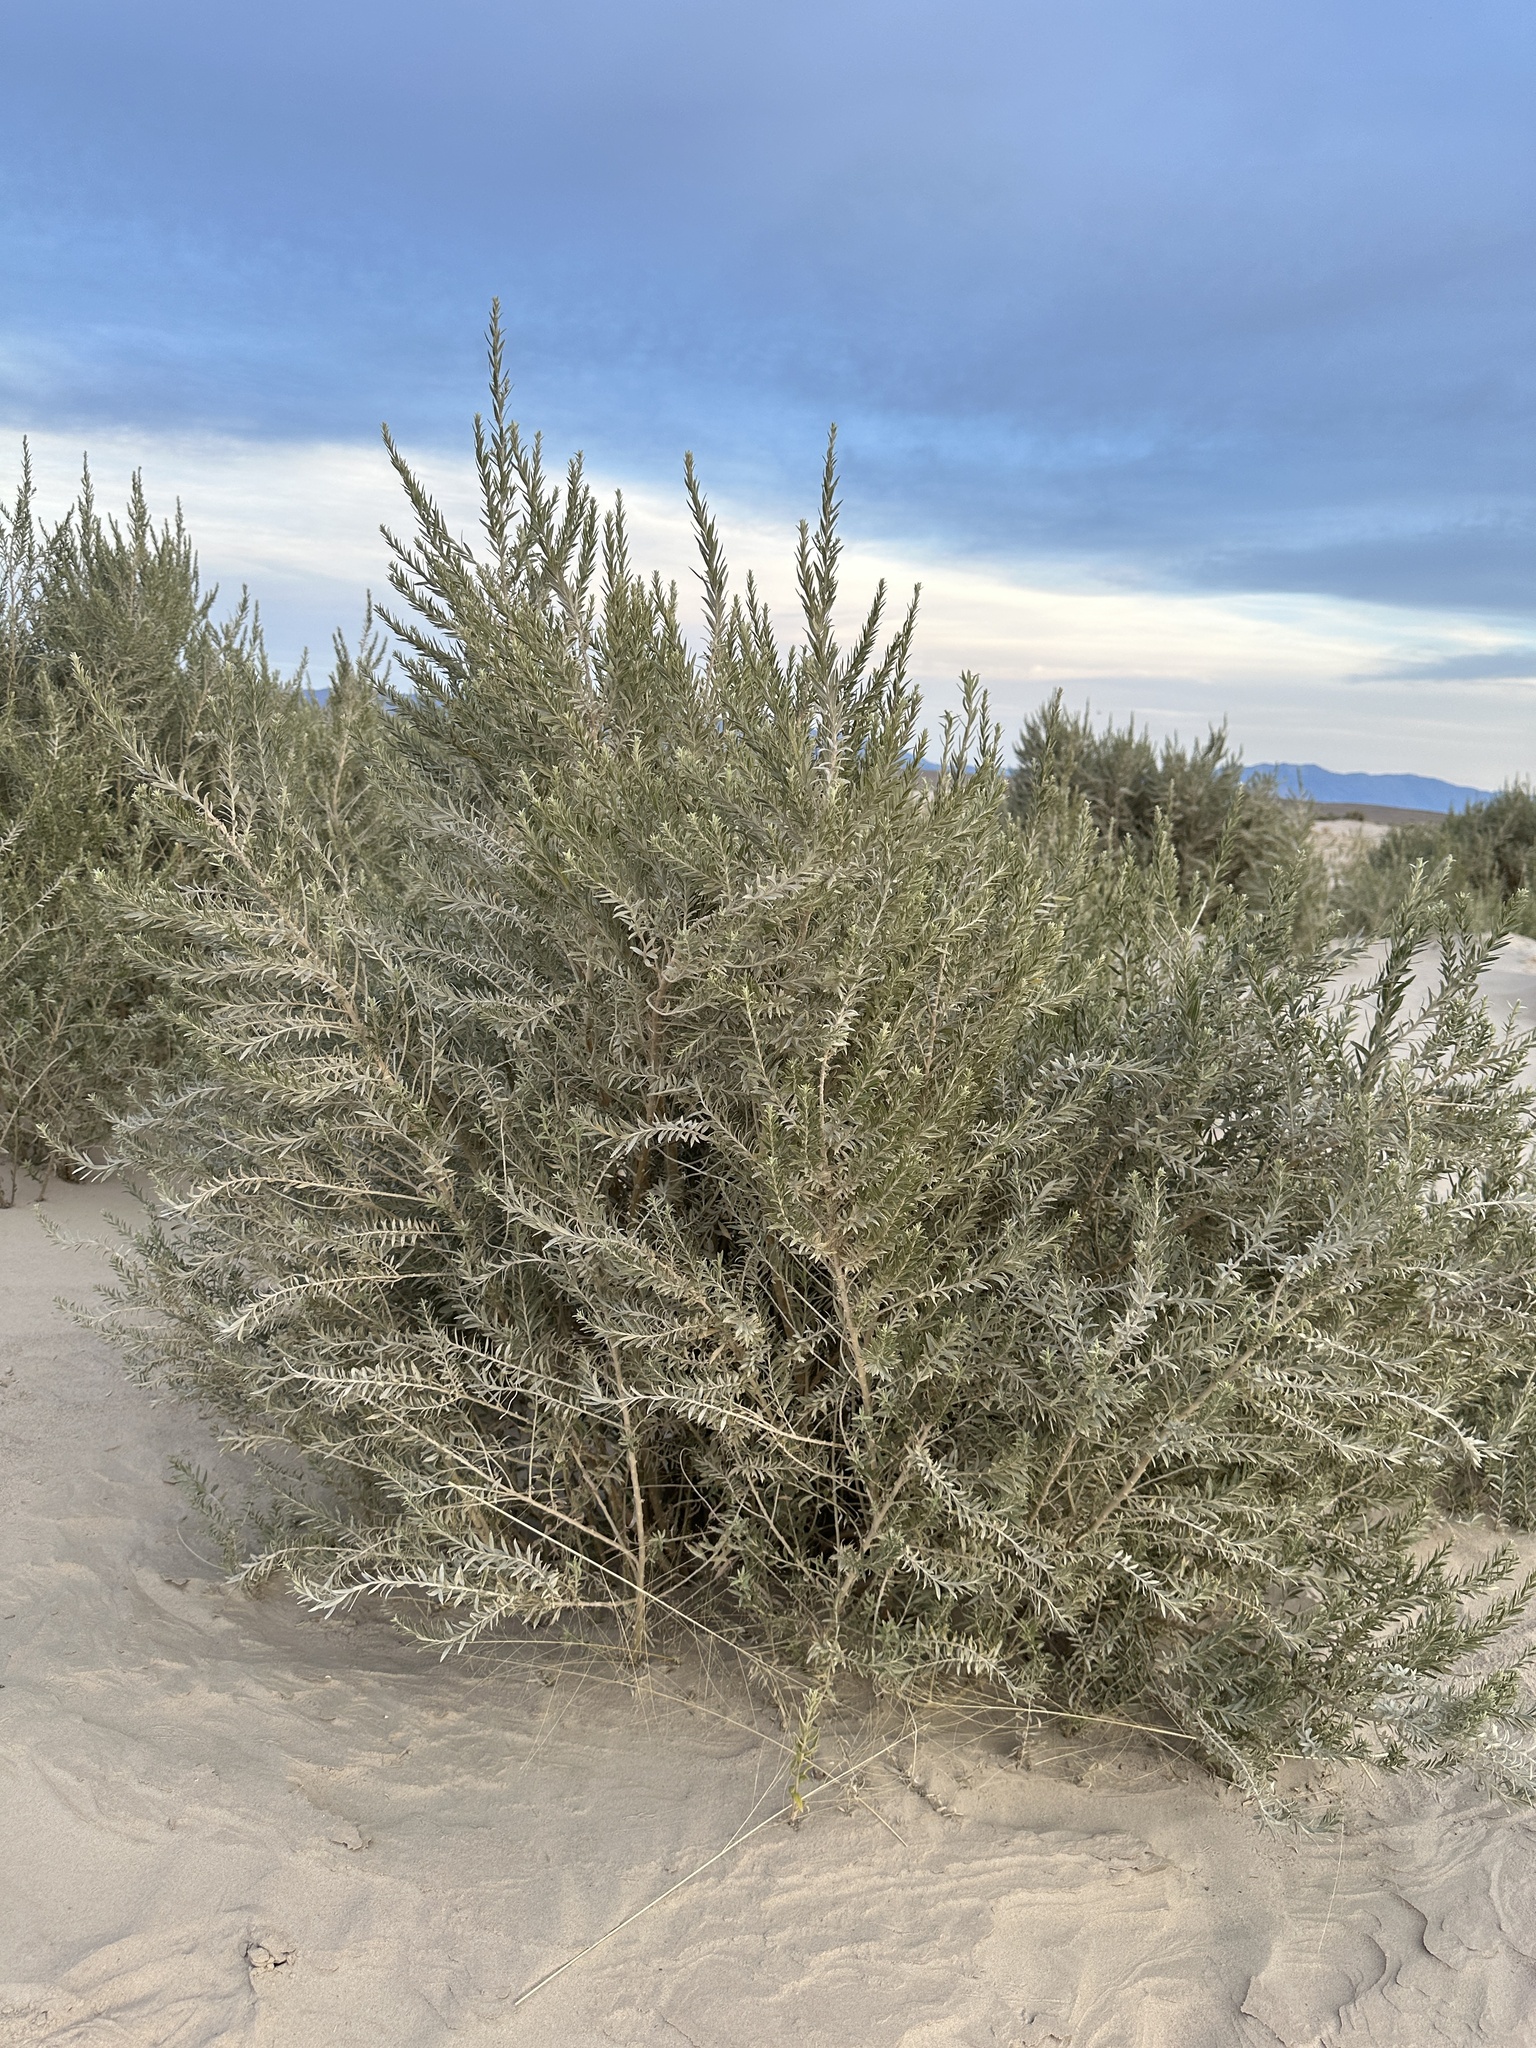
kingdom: Plantae
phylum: Tracheophyta
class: Magnoliopsida
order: Asterales
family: Asteraceae
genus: Pluchea
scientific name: Pluchea sericea
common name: Arrow-weed
